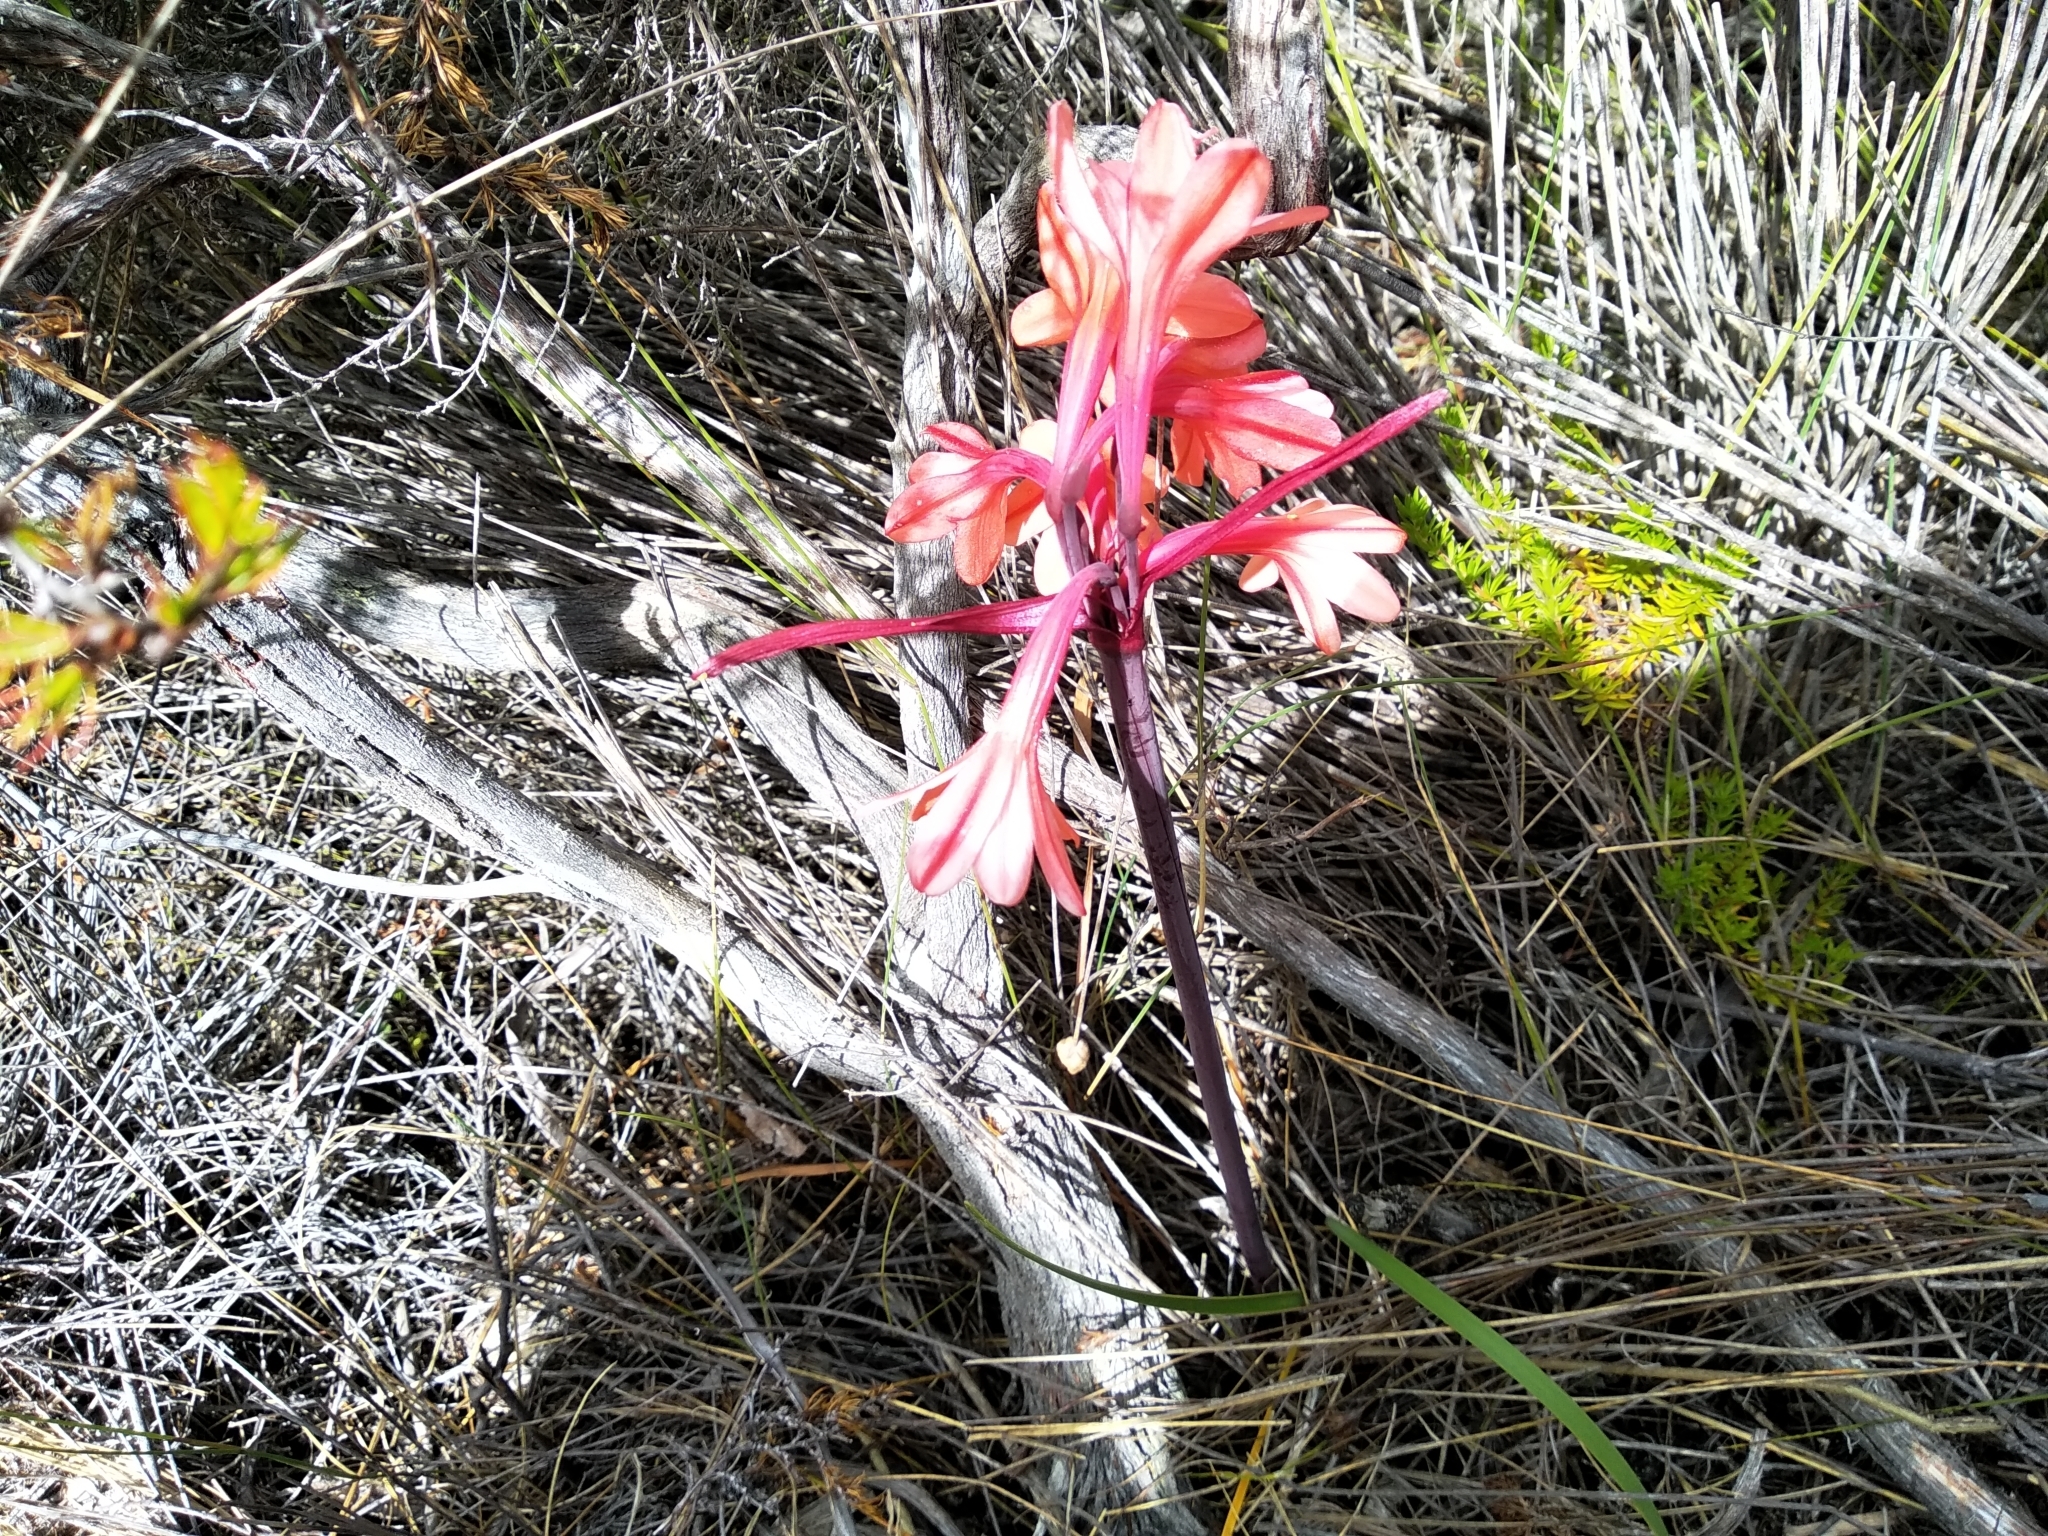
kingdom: Plantae
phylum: Tracheophyta
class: Liliopsida
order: Asparagales
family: Amaryllidaceae
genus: Cyrtanthus
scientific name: Cyrtanthus ventricosus
